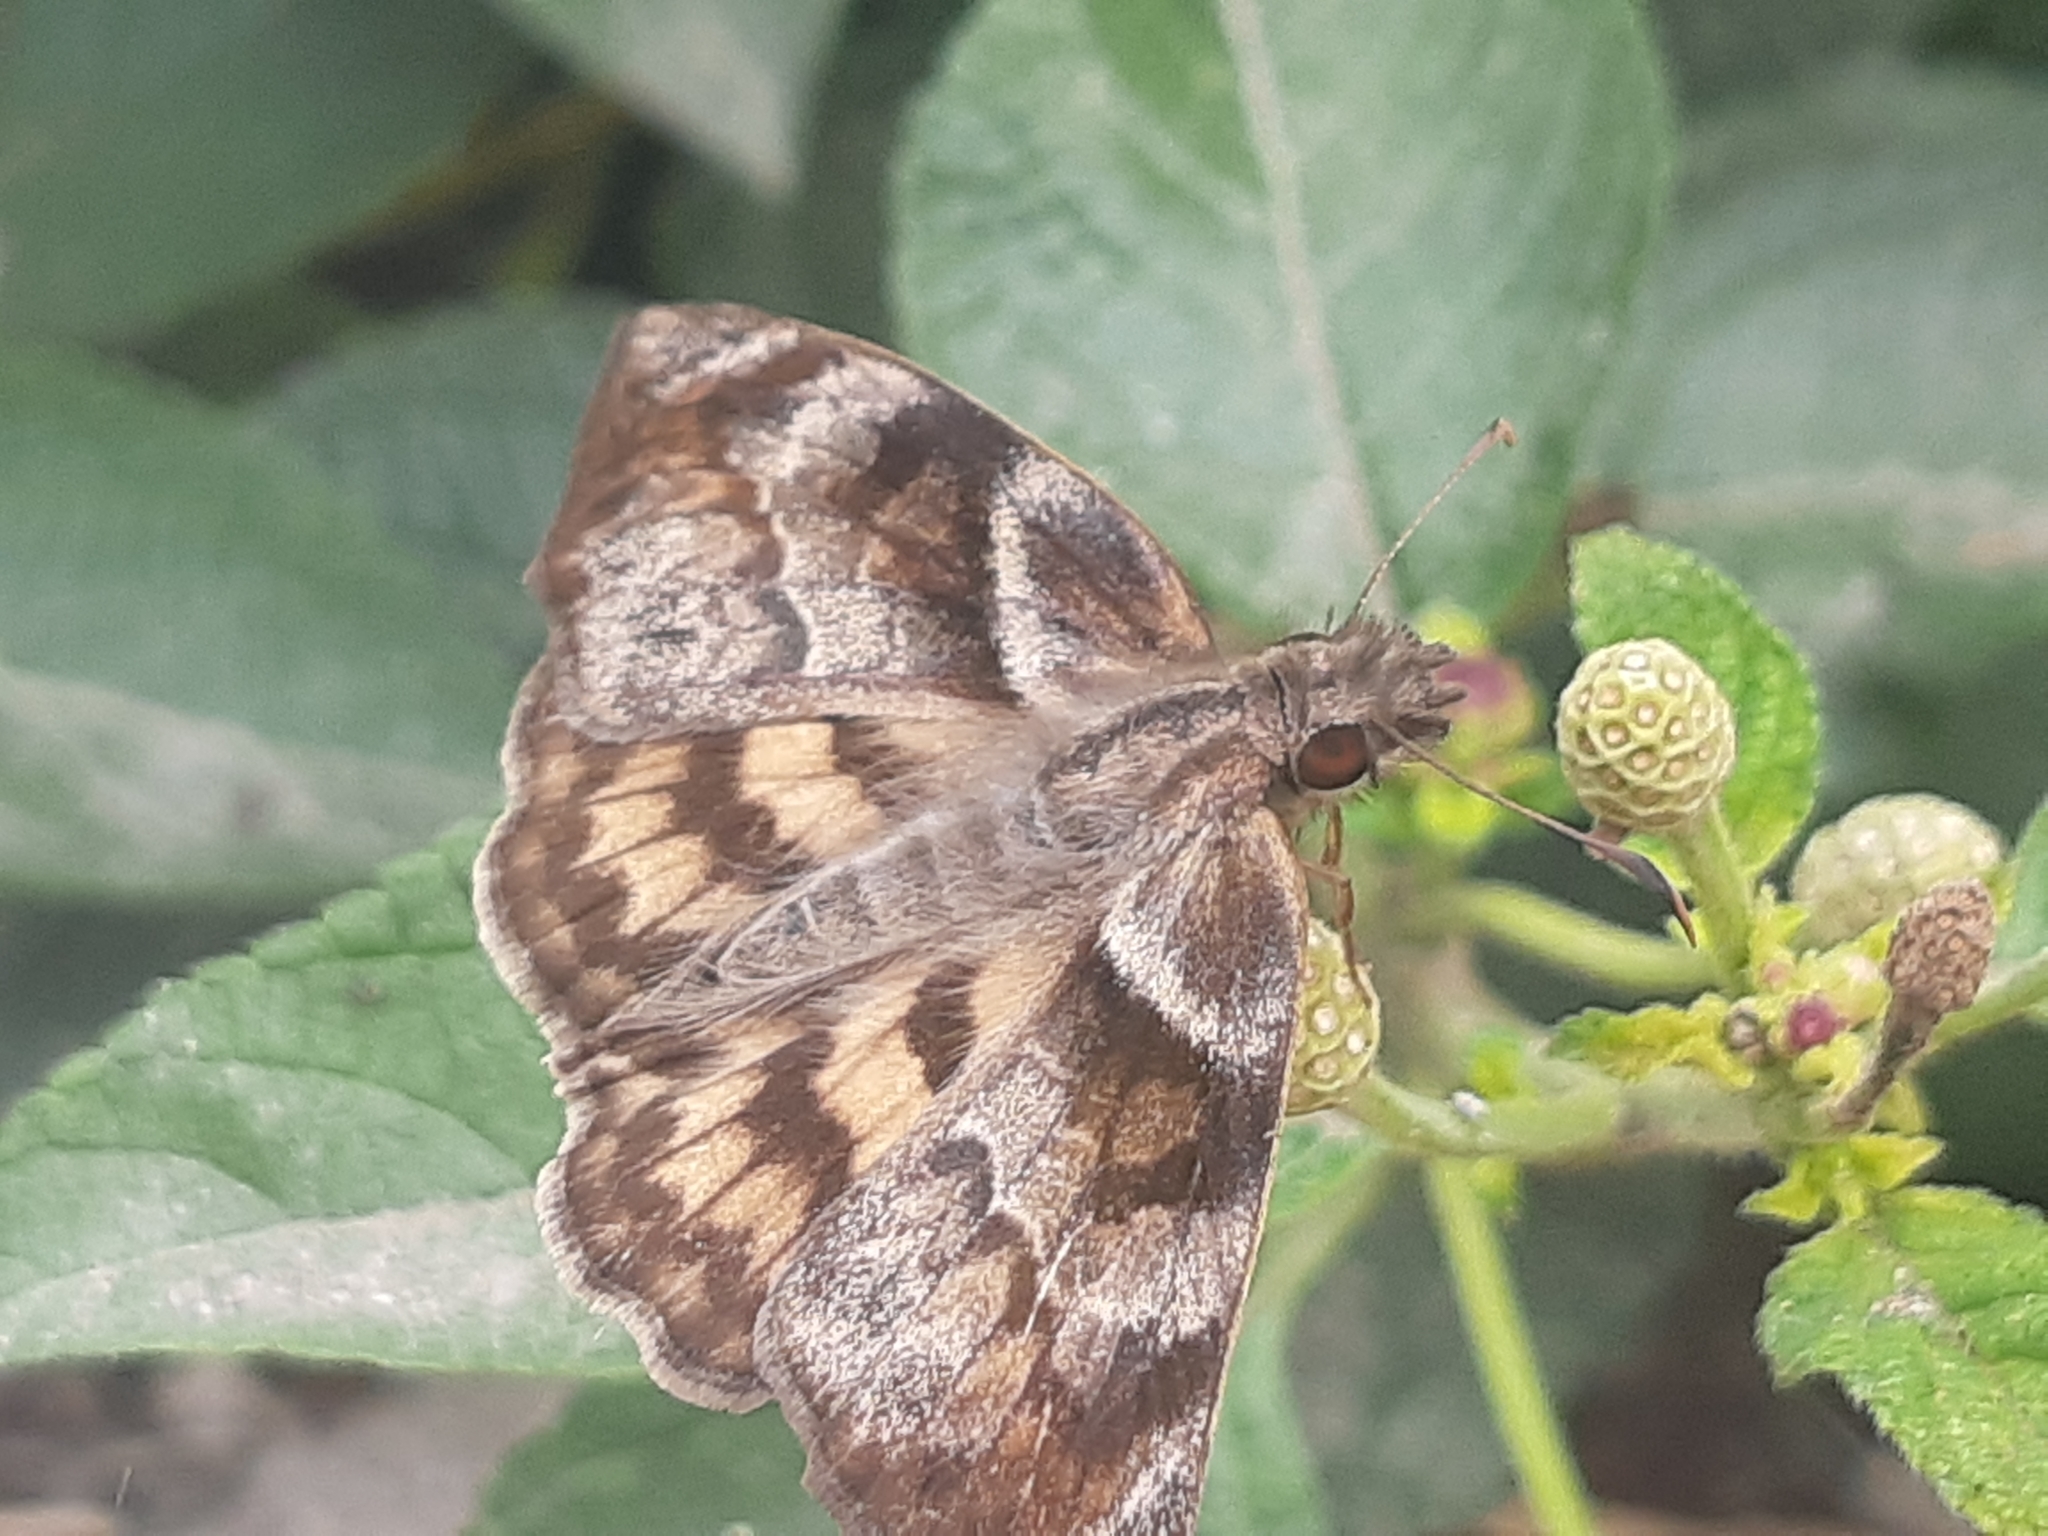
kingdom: Animalia
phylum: Arthropoda
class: Insecta
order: Lepidoptera
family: Hesperiidae
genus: Timochares
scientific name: Timochares trifasciata
